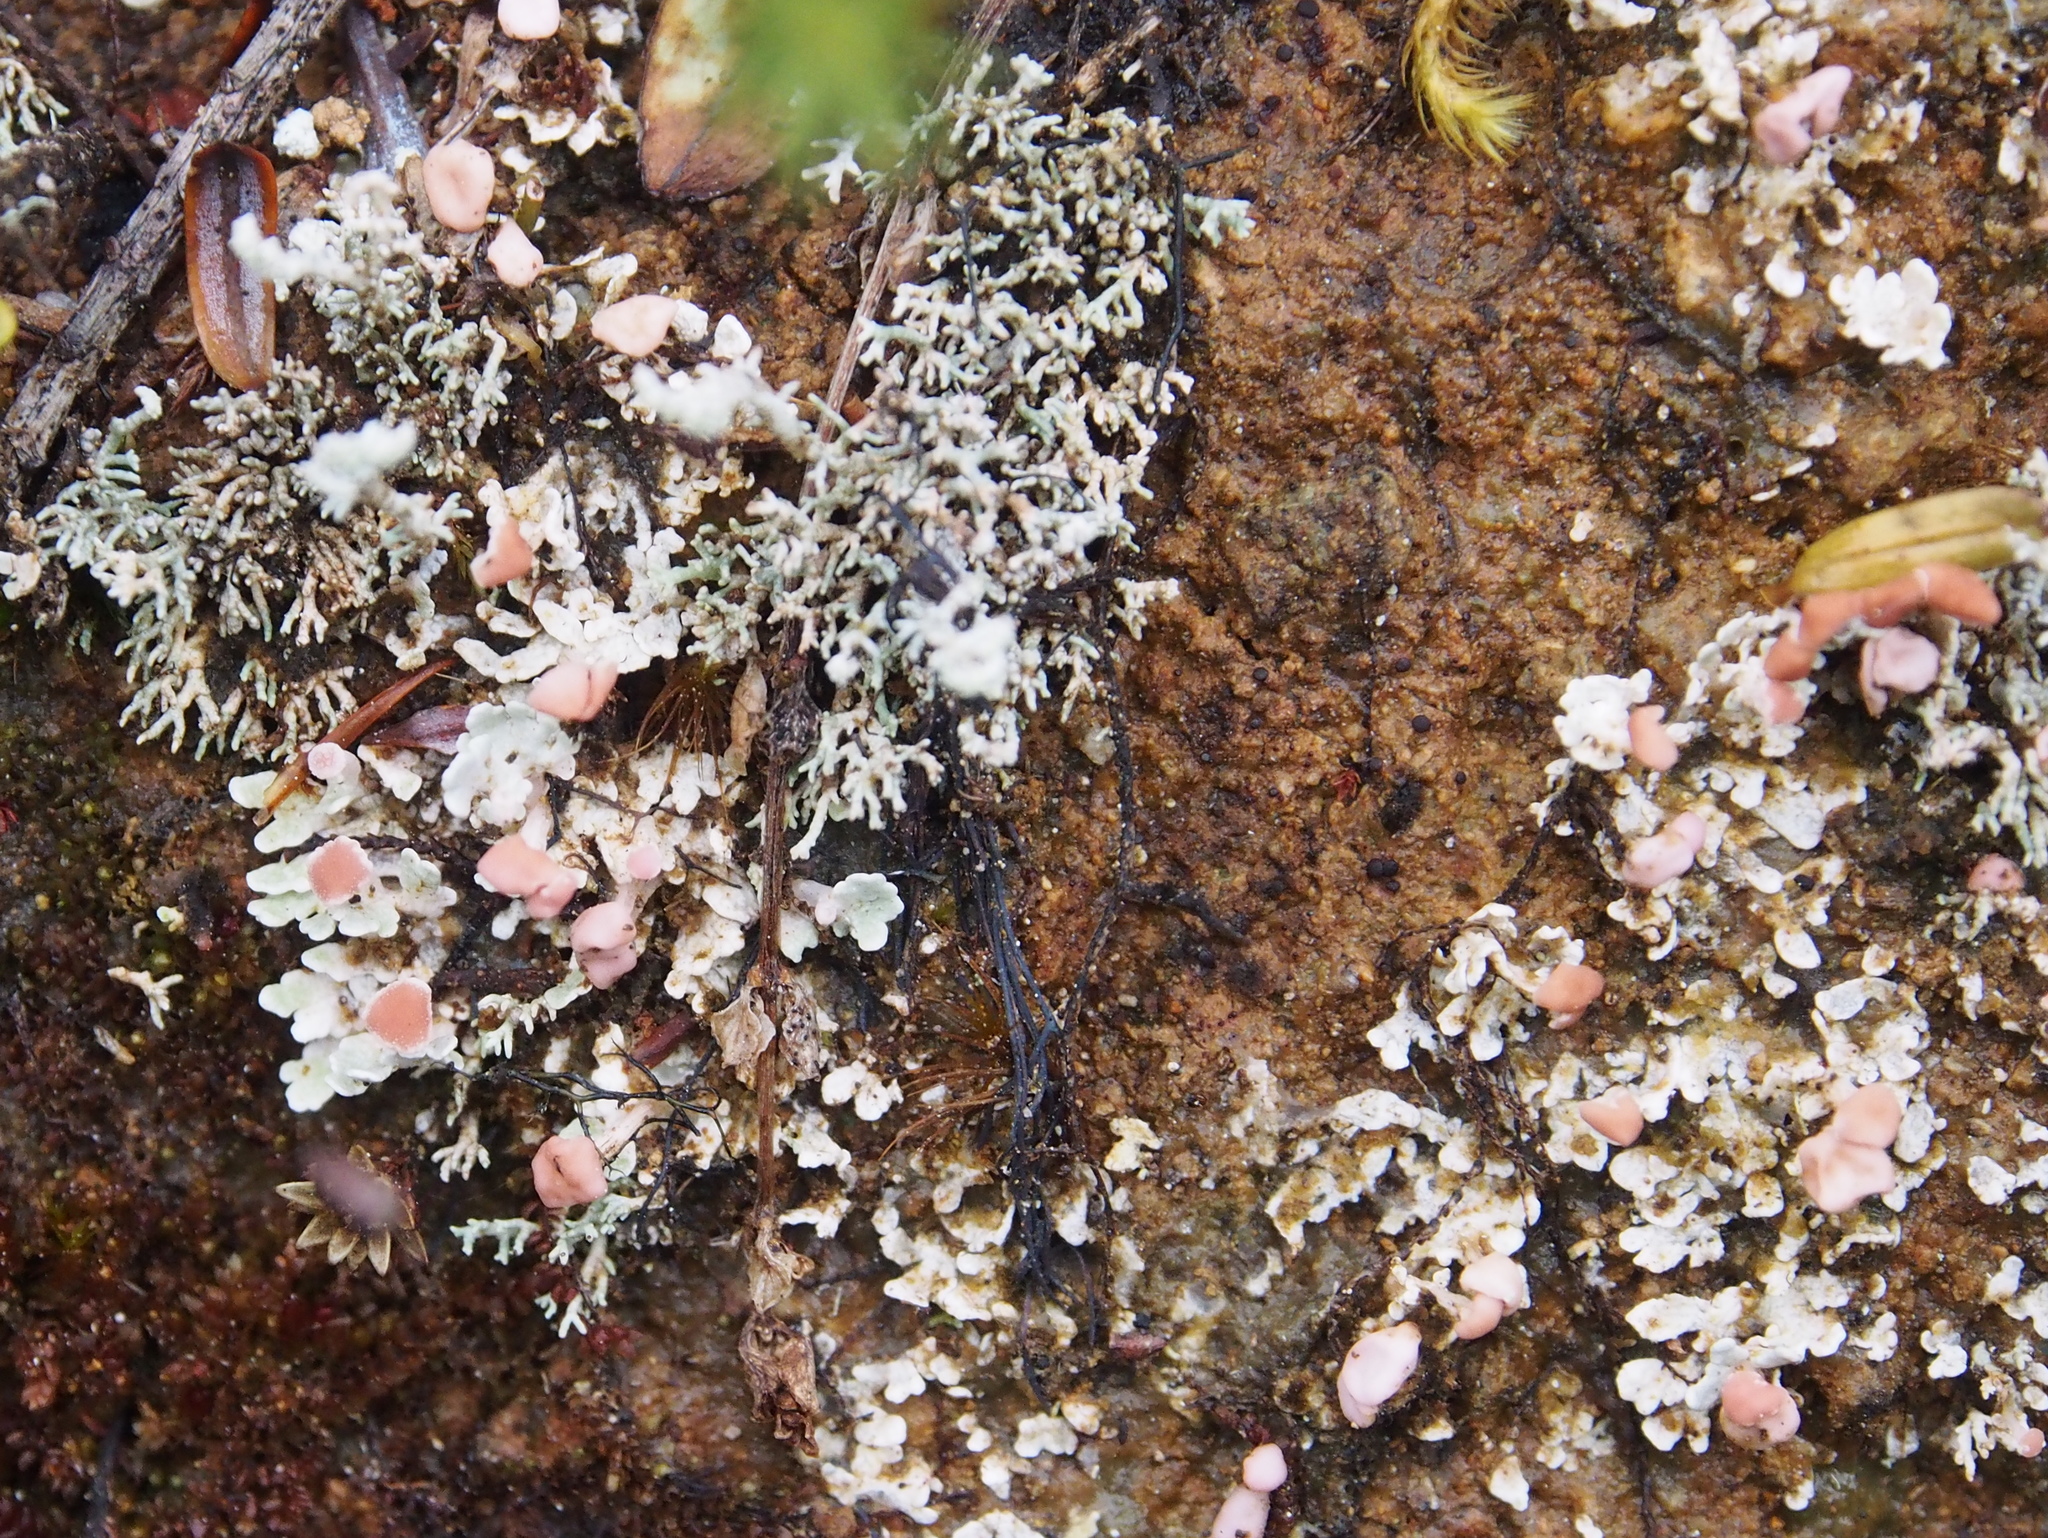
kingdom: Fungi
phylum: Ascomycota
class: Lecanoromycetes
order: Baeomycetales
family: Baeomycetaceae
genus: Phyllobaeis
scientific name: Phyllobaeis imbricata
